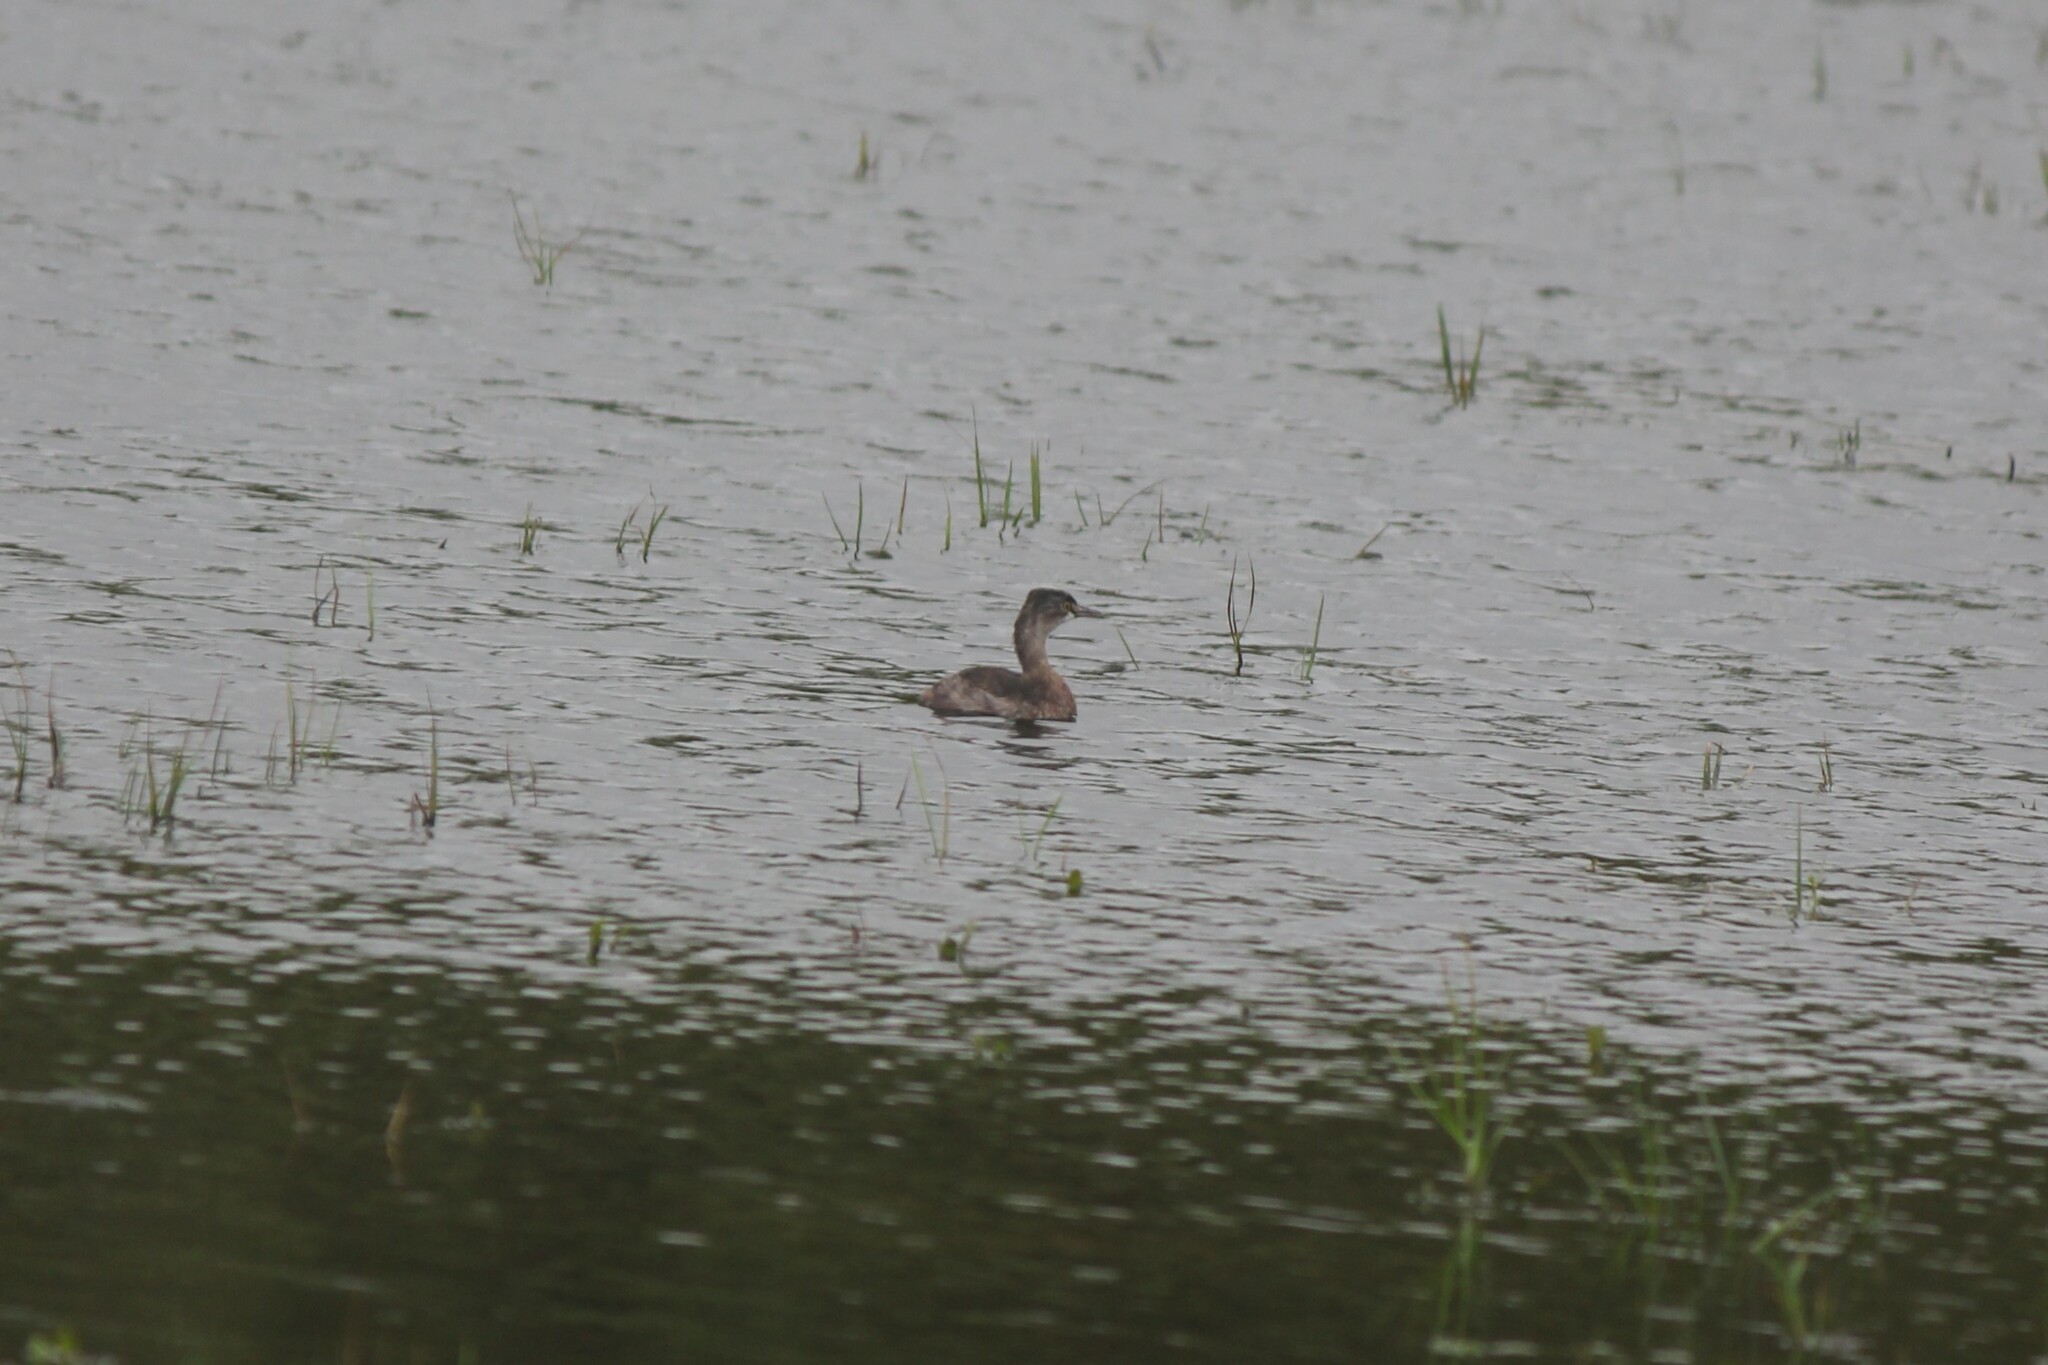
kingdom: Animalia
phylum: Chordata
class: Aves
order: Podicipediformes
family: Podicipedidae
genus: Tachybaptus
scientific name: Tachybaptus dominicus
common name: Least grebe
